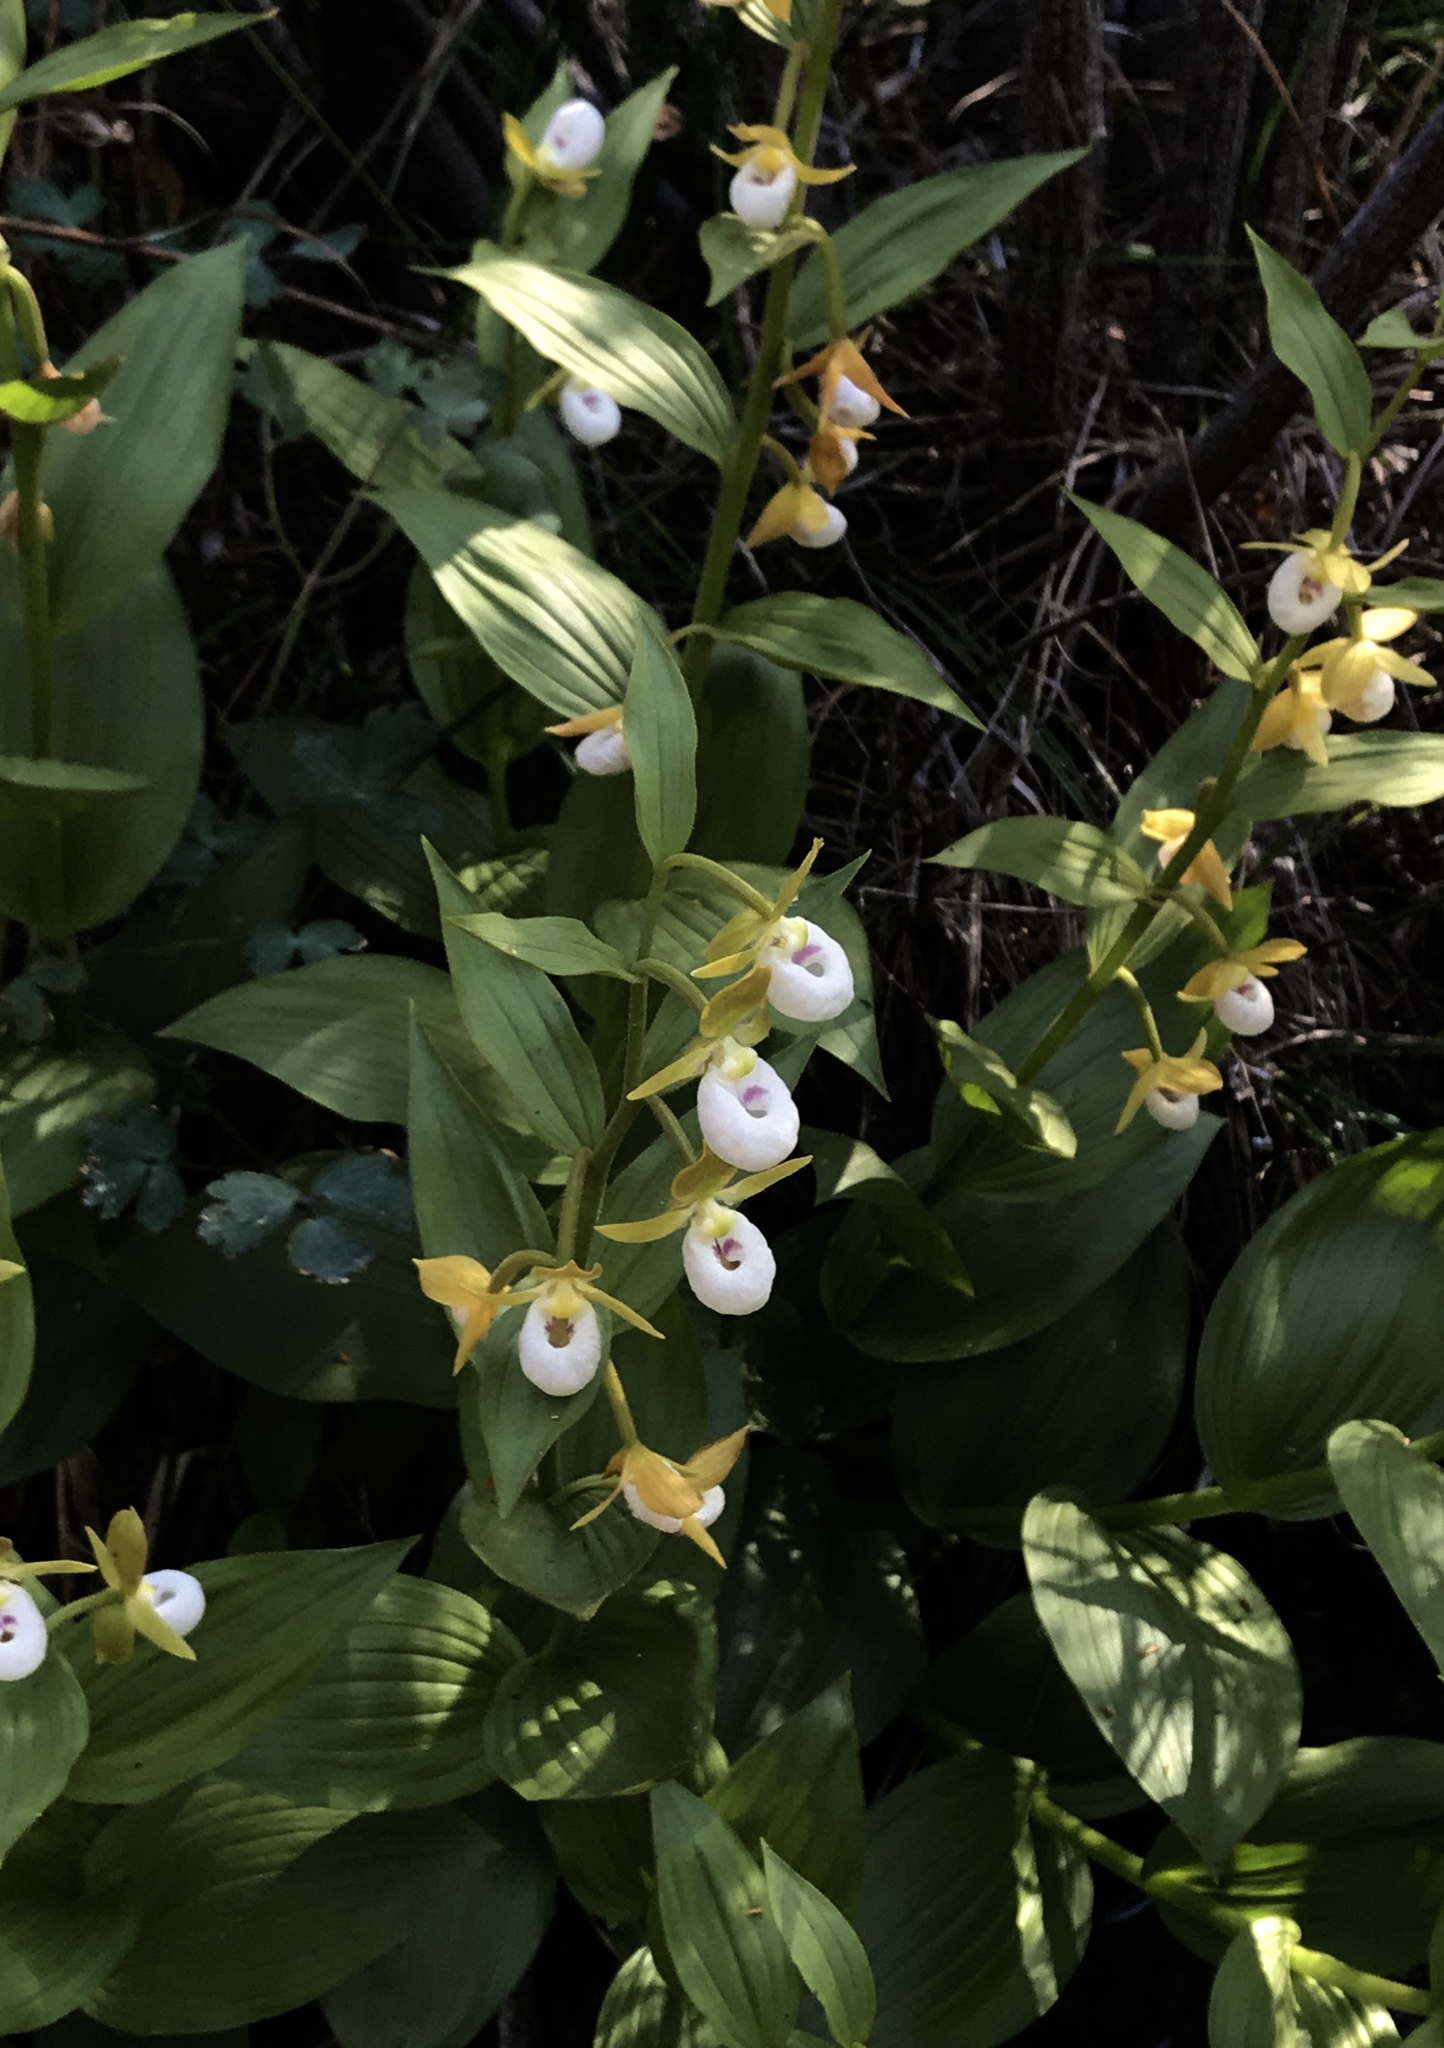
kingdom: Plantae
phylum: Tracheophyta
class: Liliopsida
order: Asparagales
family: Orchidaceae
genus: Cypripedium
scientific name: Cypripedium californicum
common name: California lady's slipper
